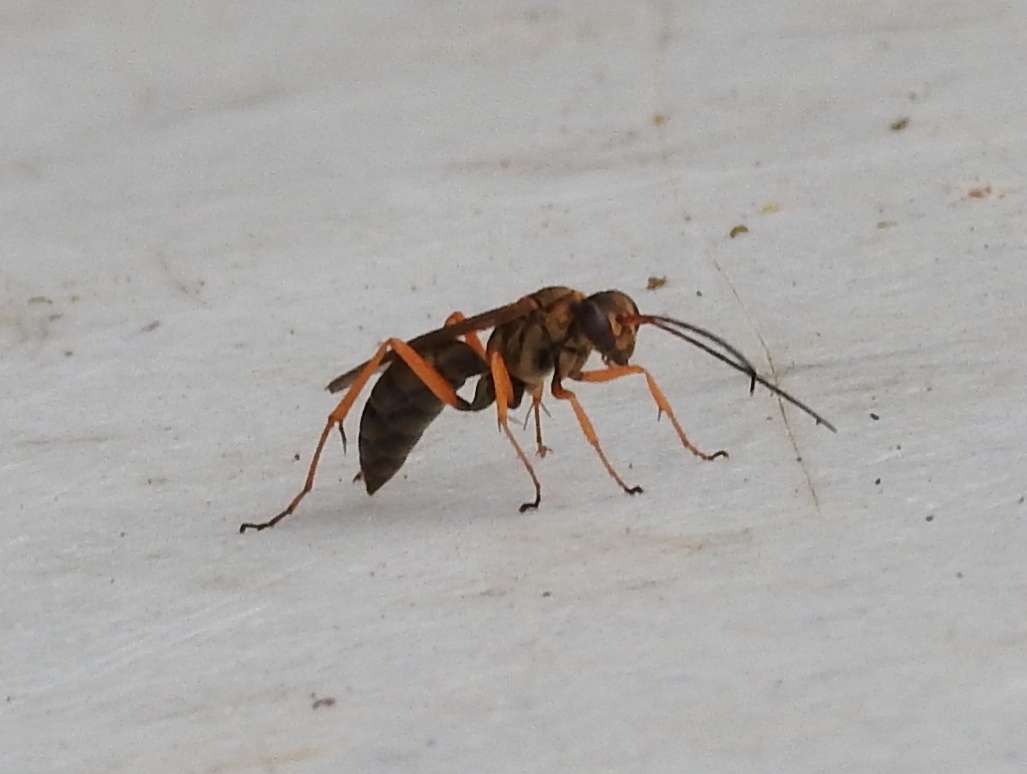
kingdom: Animalia
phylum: Arthropoda
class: Insecta
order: Hymenoptera
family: Pompilidae
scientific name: Pompilidae
